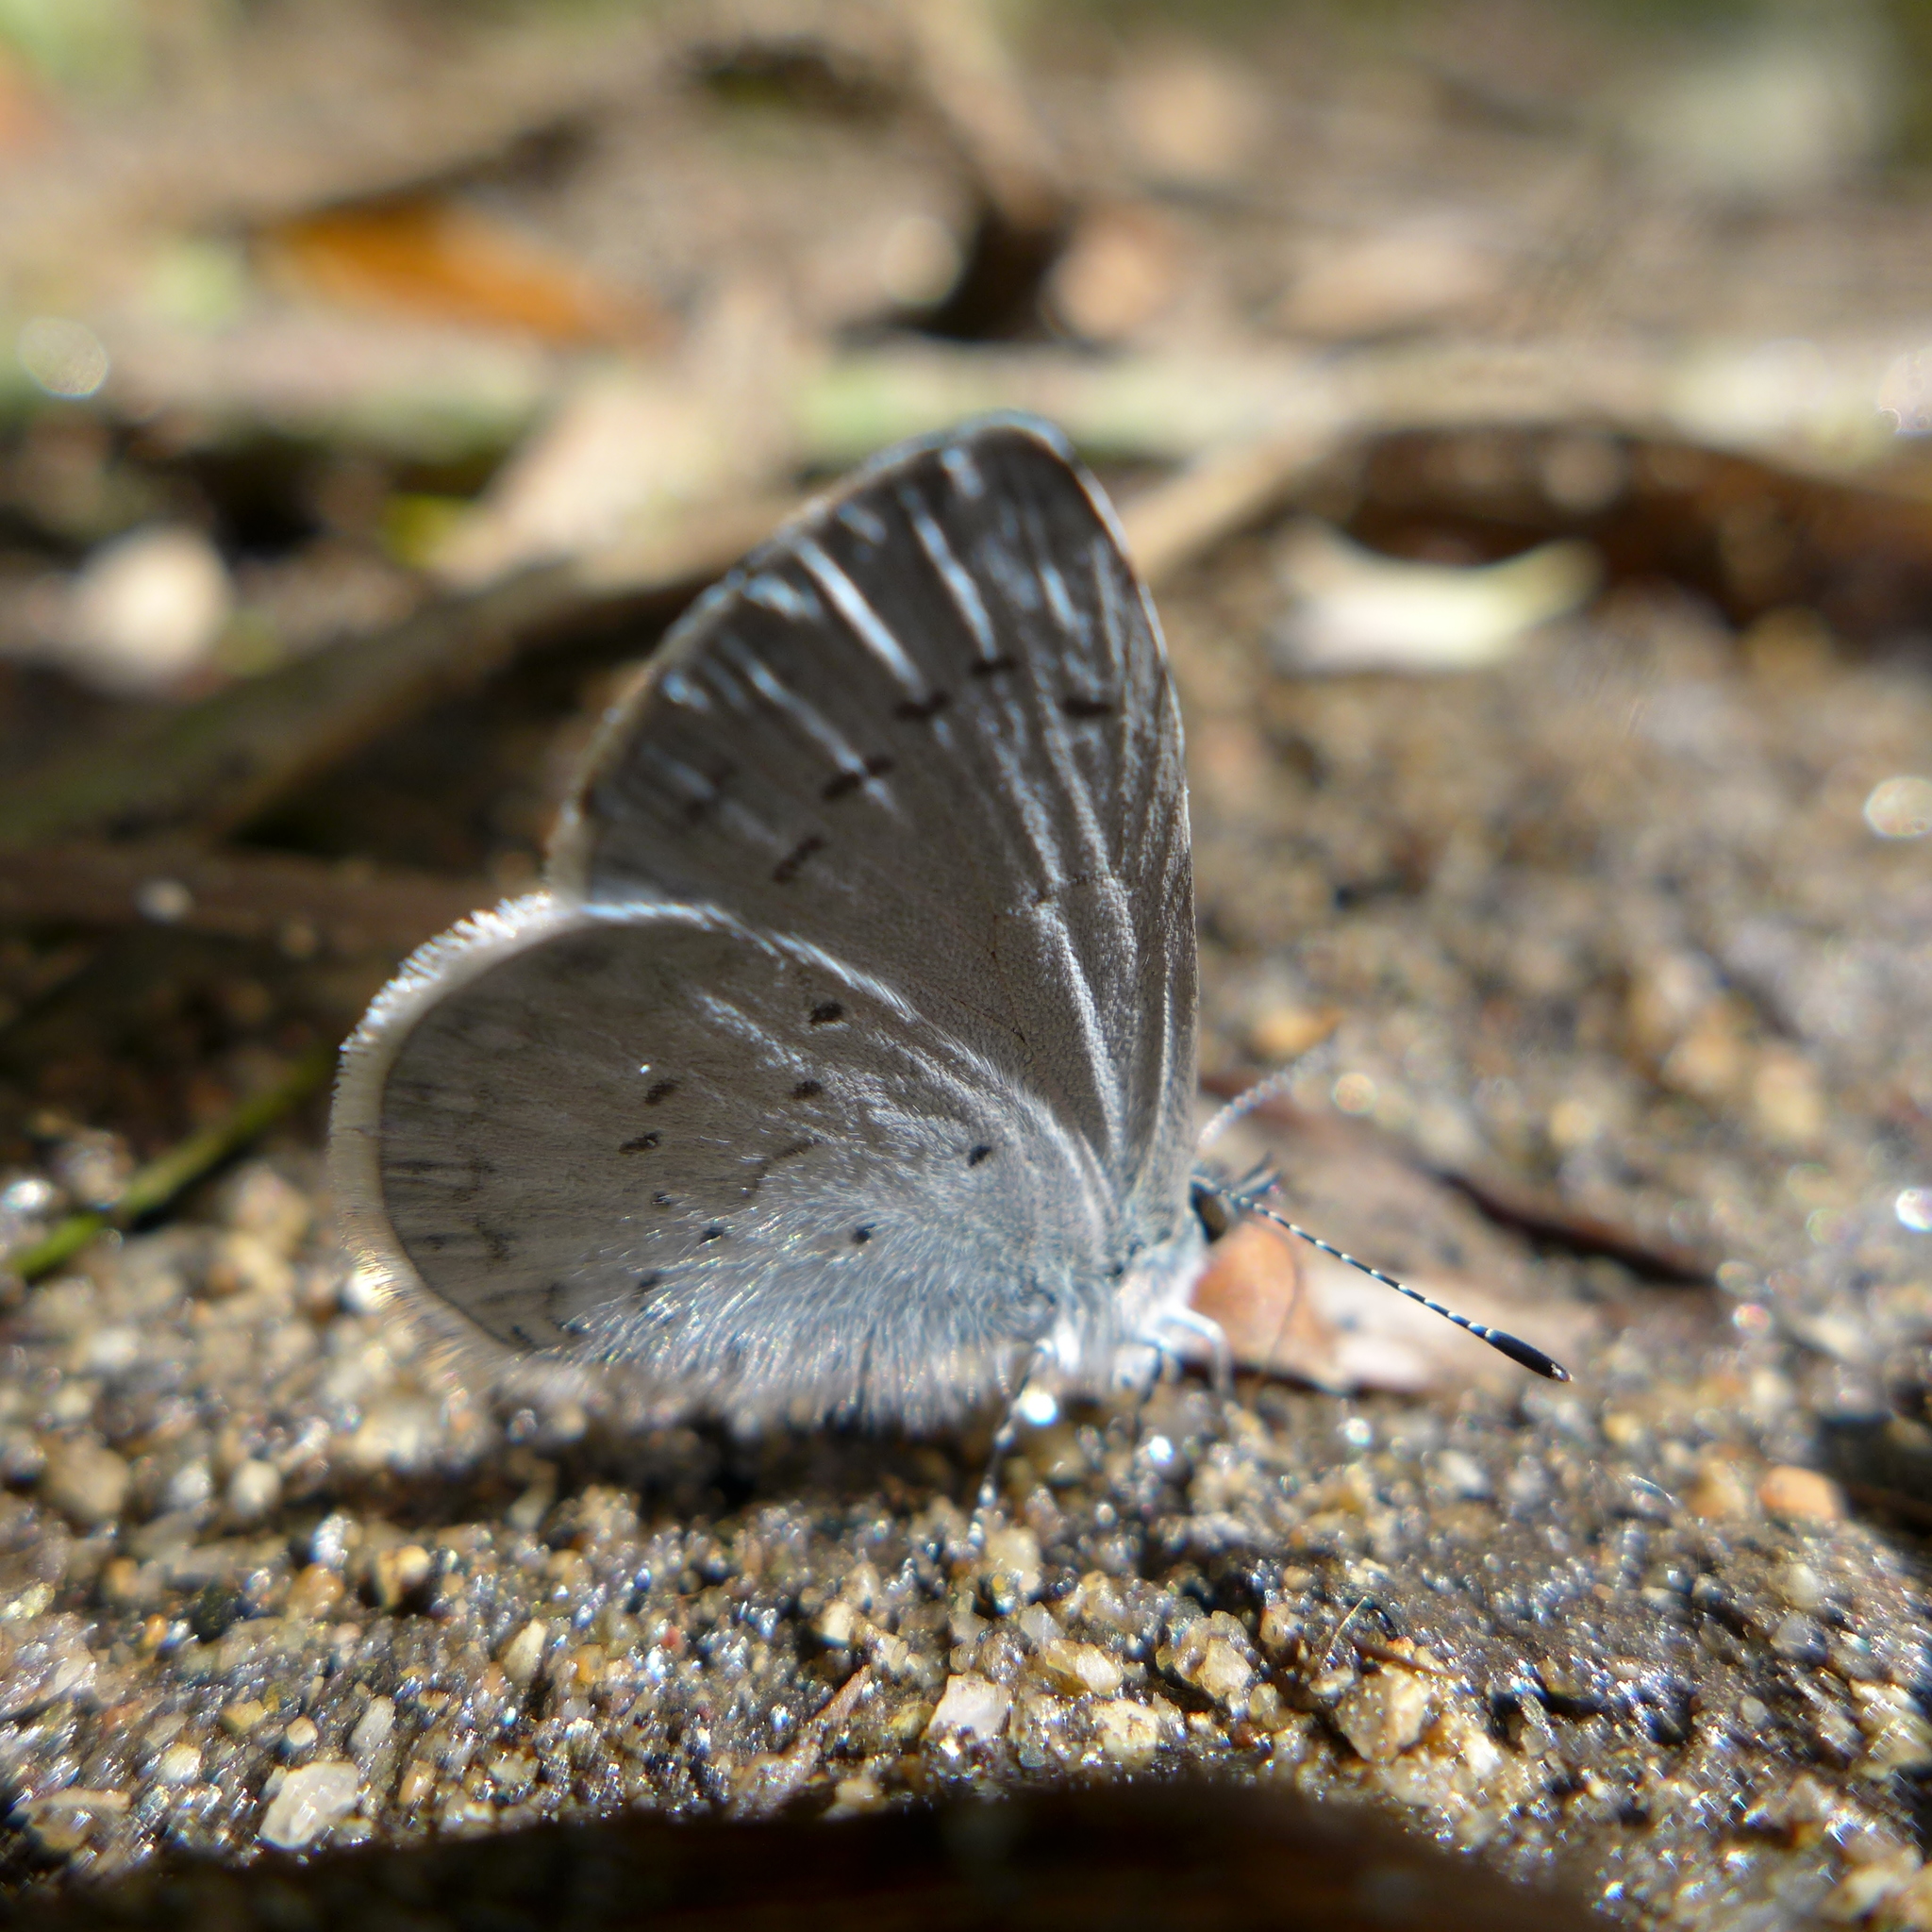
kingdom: Animalia
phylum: Arthropoda
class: Insecta
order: Lepidoptera
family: Lycaenidae
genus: Celastrina
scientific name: Celastrina ladon
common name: Spring azure
